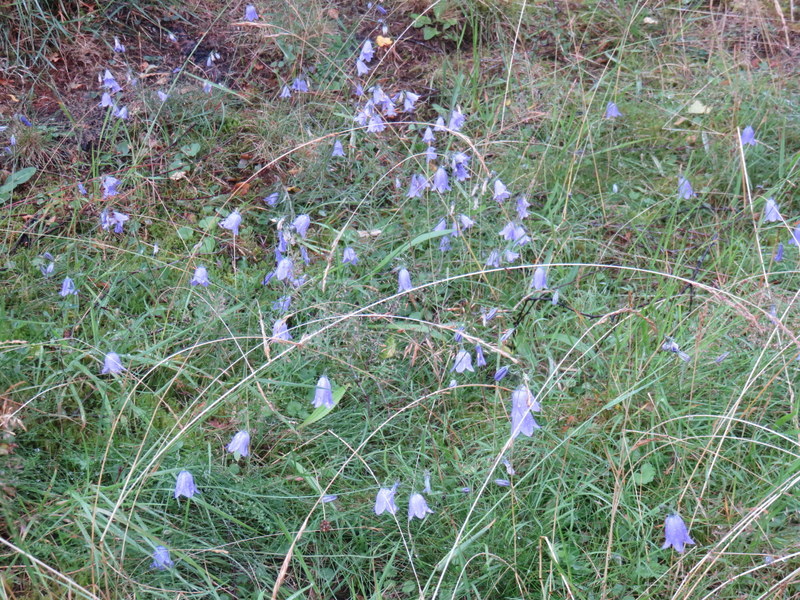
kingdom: Plantae
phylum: Tracheophyta
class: Magnoliopsida
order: Asterales
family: Campanulaceae
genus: Campanula
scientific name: Campanula rotundifolia
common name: Harebell
